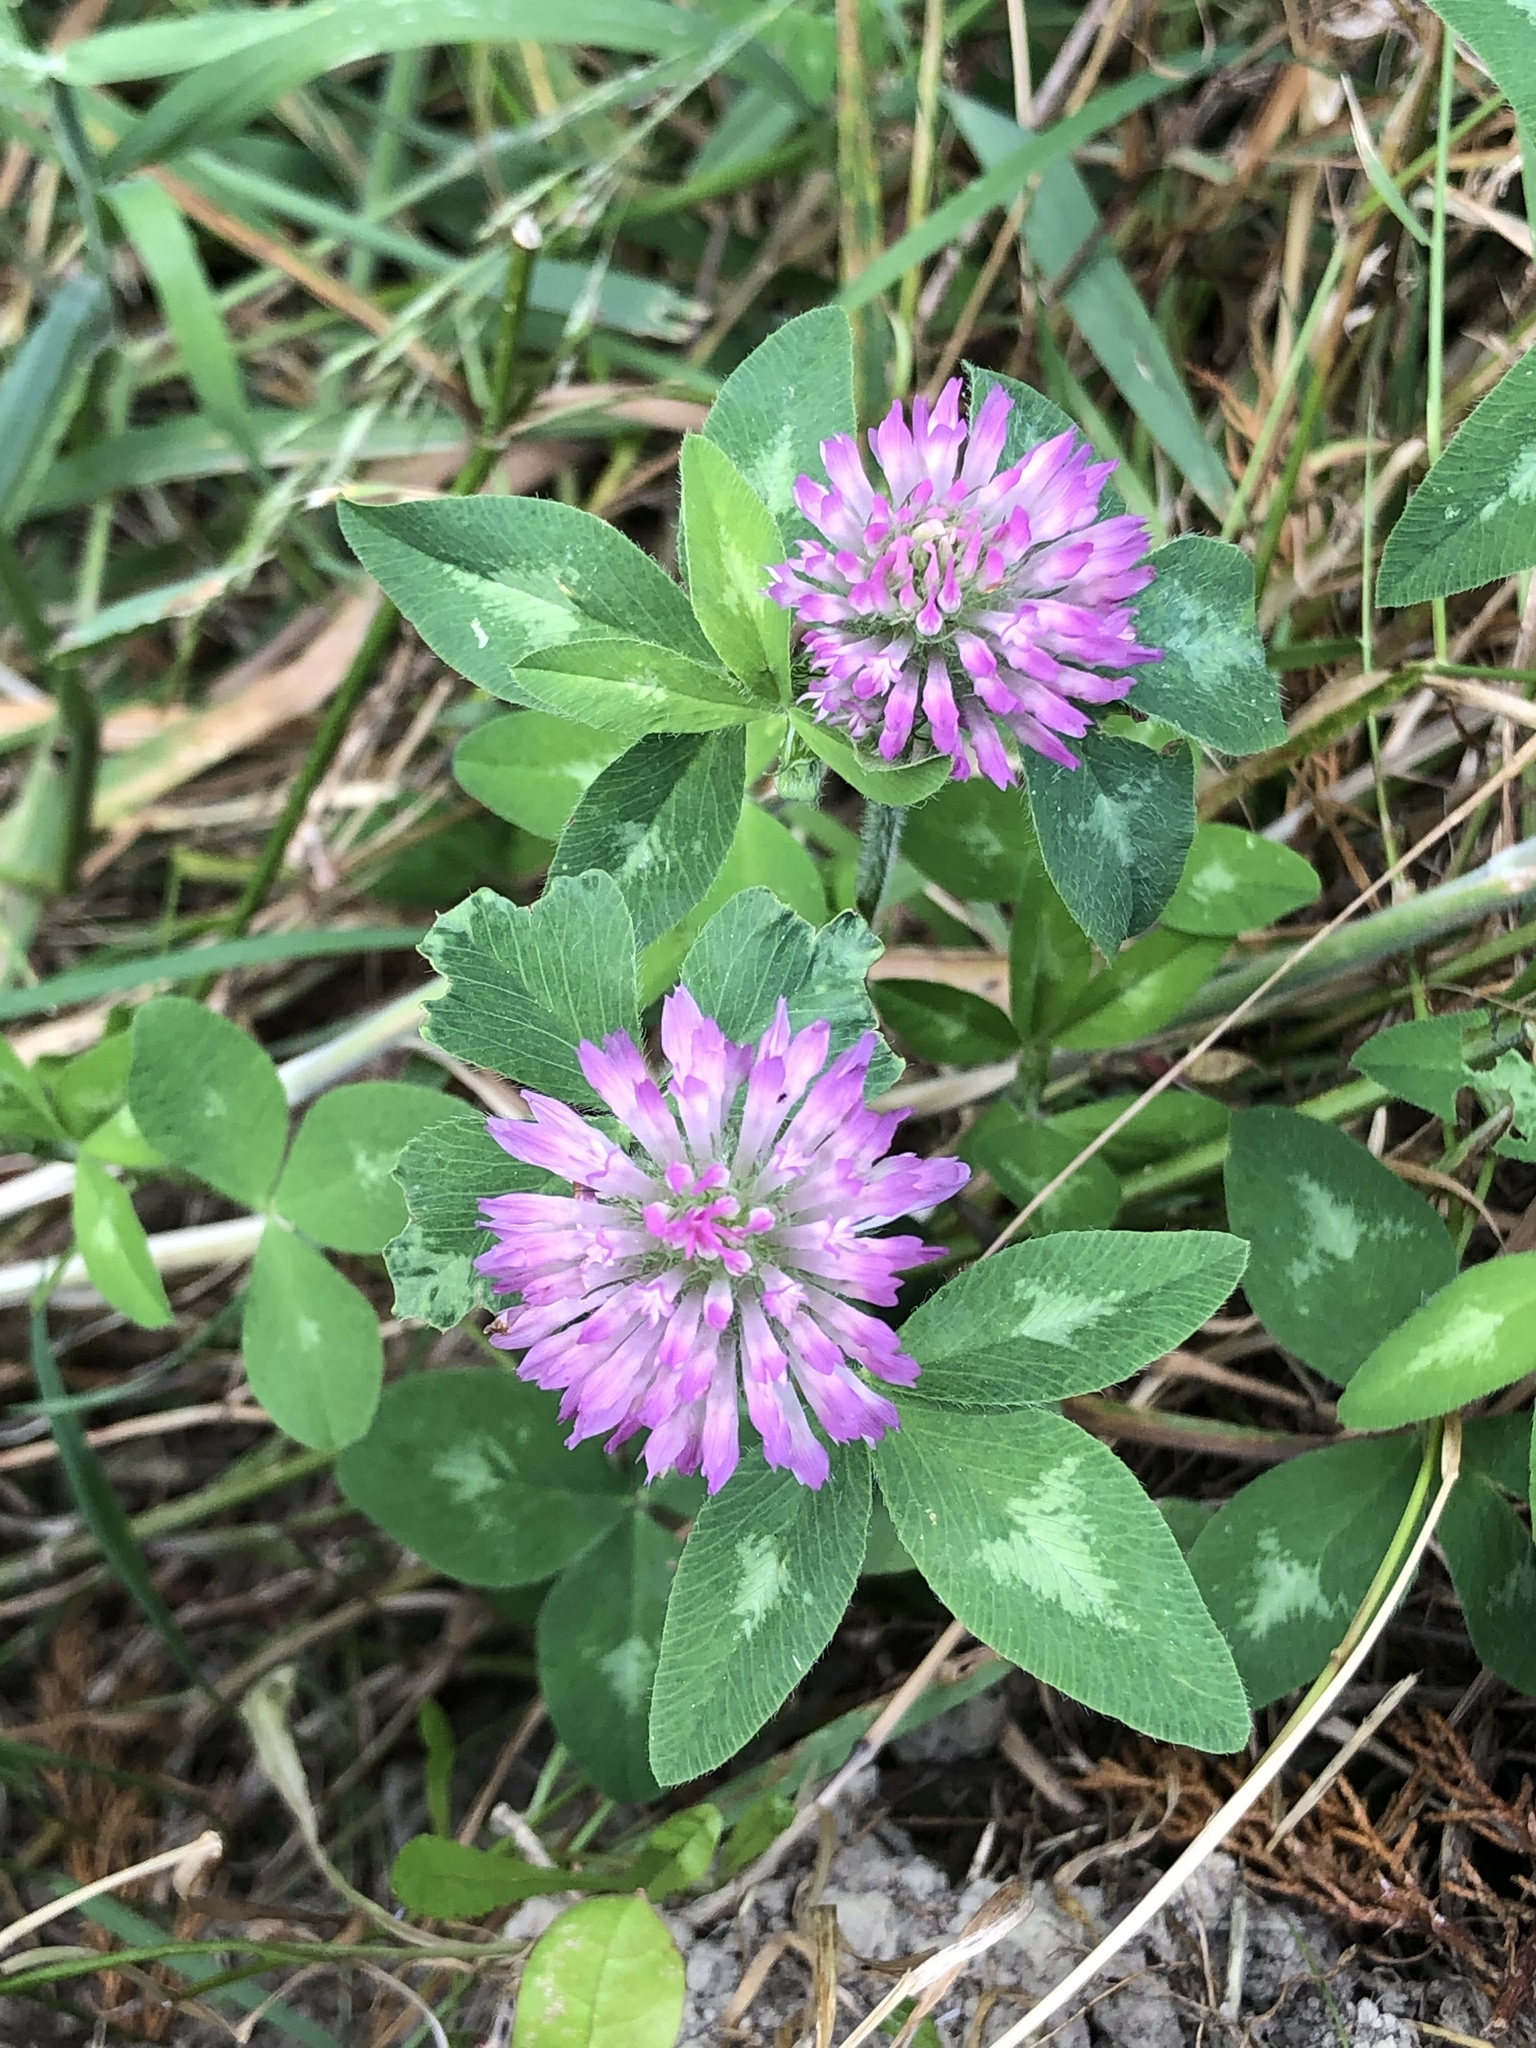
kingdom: Plantae
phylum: Tracheophyta
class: Magnoliopsida
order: Fabales
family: Fabaceae
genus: Trifolium
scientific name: Trifolium pratense
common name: Red clover
